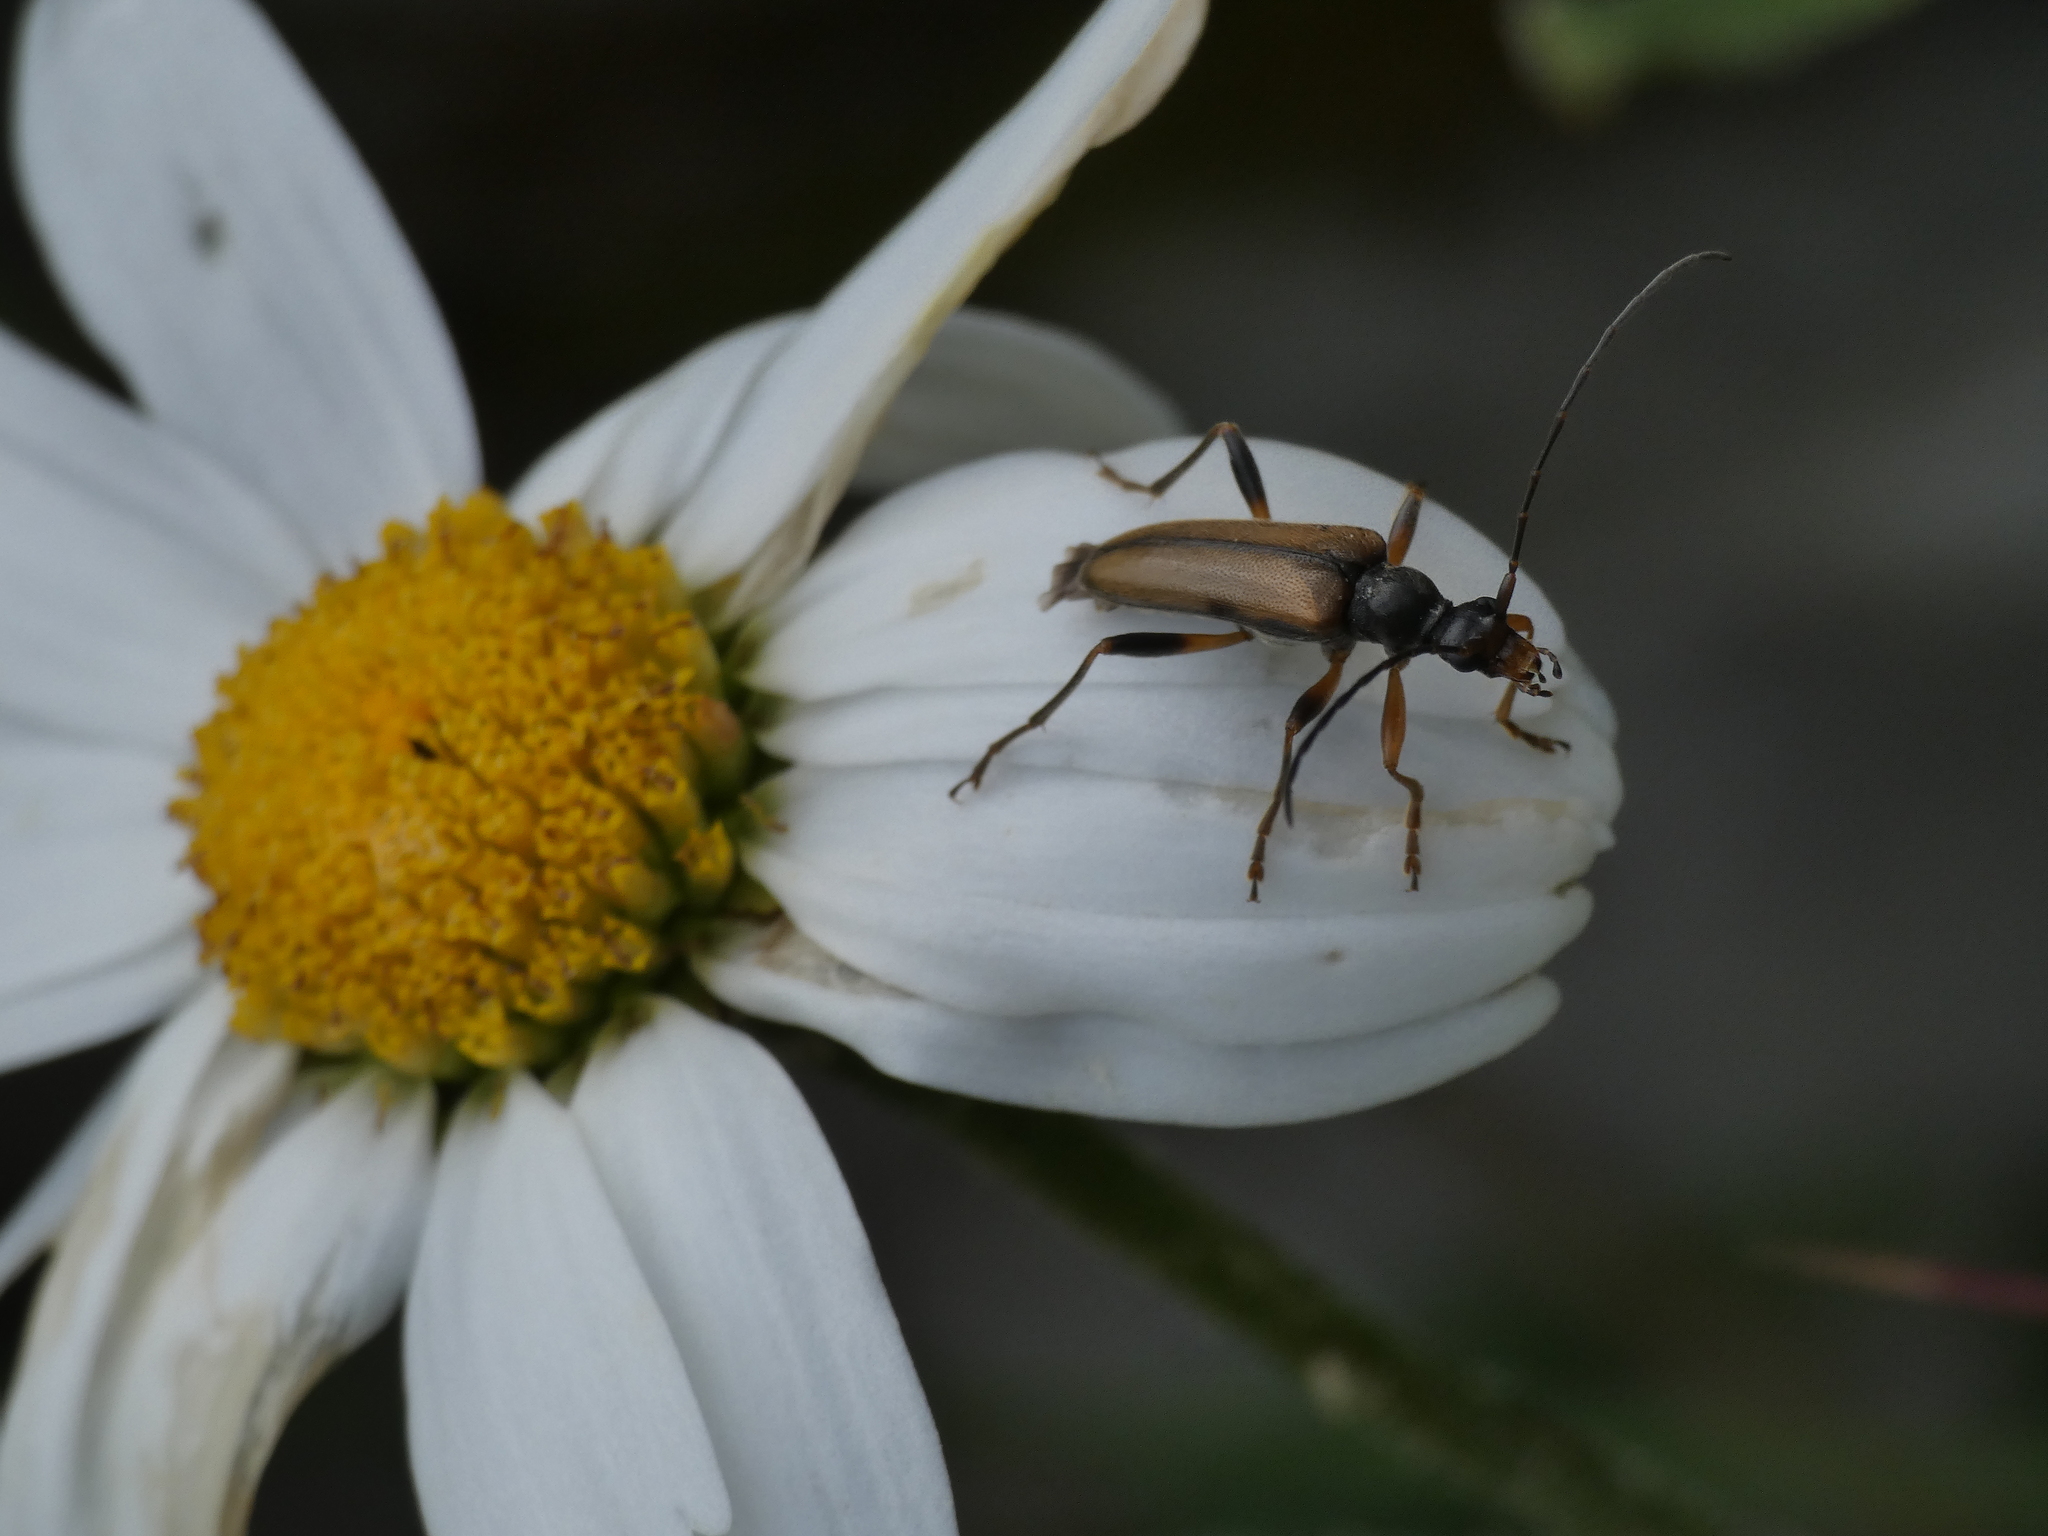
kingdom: Animalia
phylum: Arthropoda
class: Insecta
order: Coleoptera
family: Cerambycidae
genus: Pidonia
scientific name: Pidonia lurida
